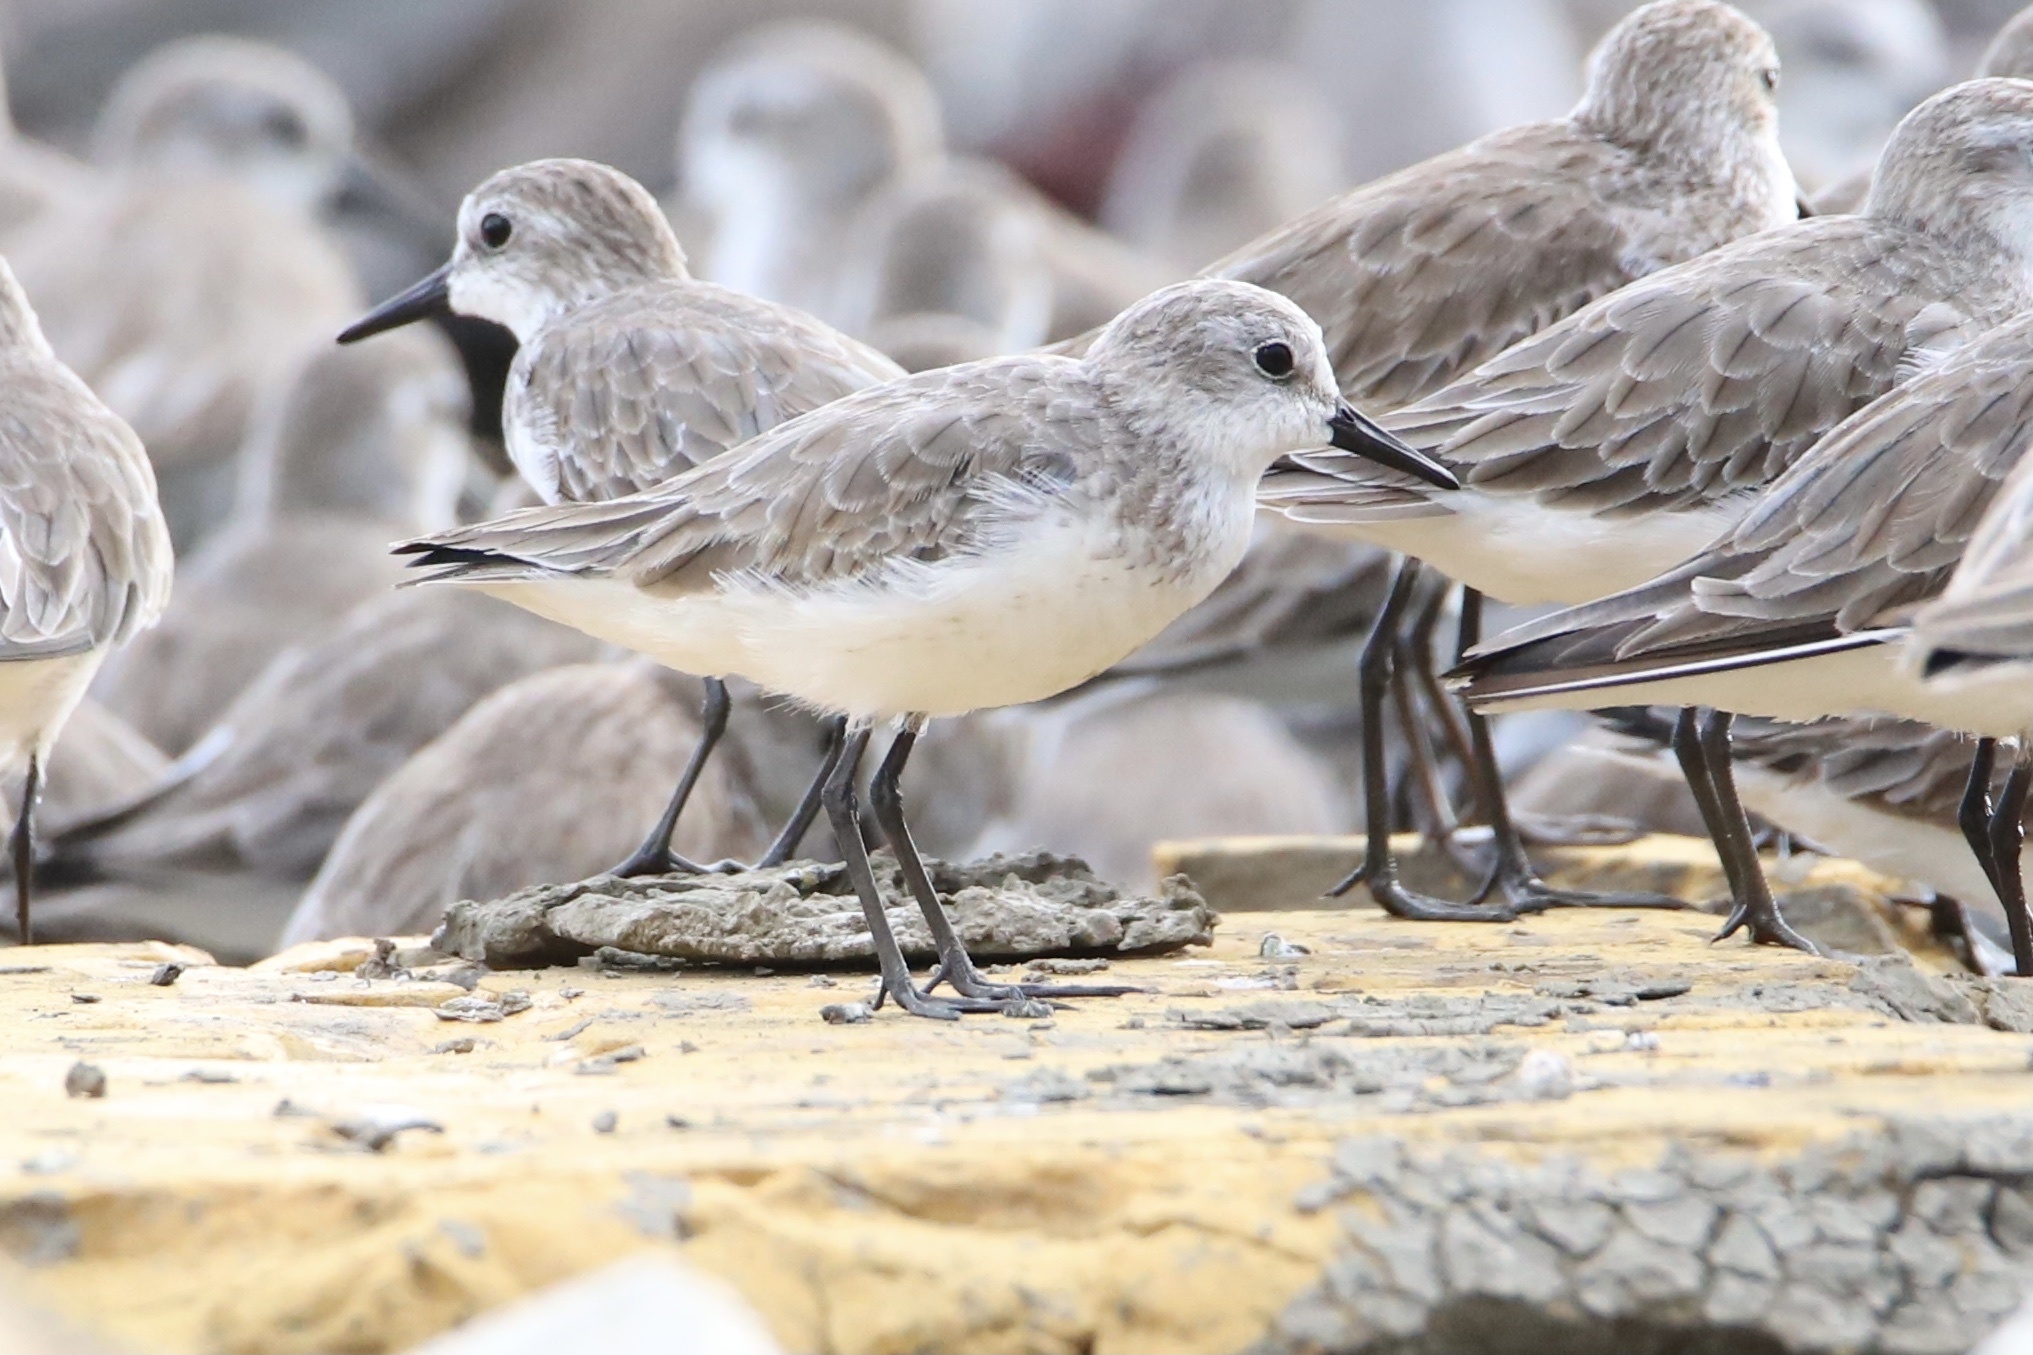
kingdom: Animalia
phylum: Chordata
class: Aves
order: Charadriiformes
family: Scolopacidae
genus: Calidris
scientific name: Calidris pusilla
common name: Semipalmated sandpiper
